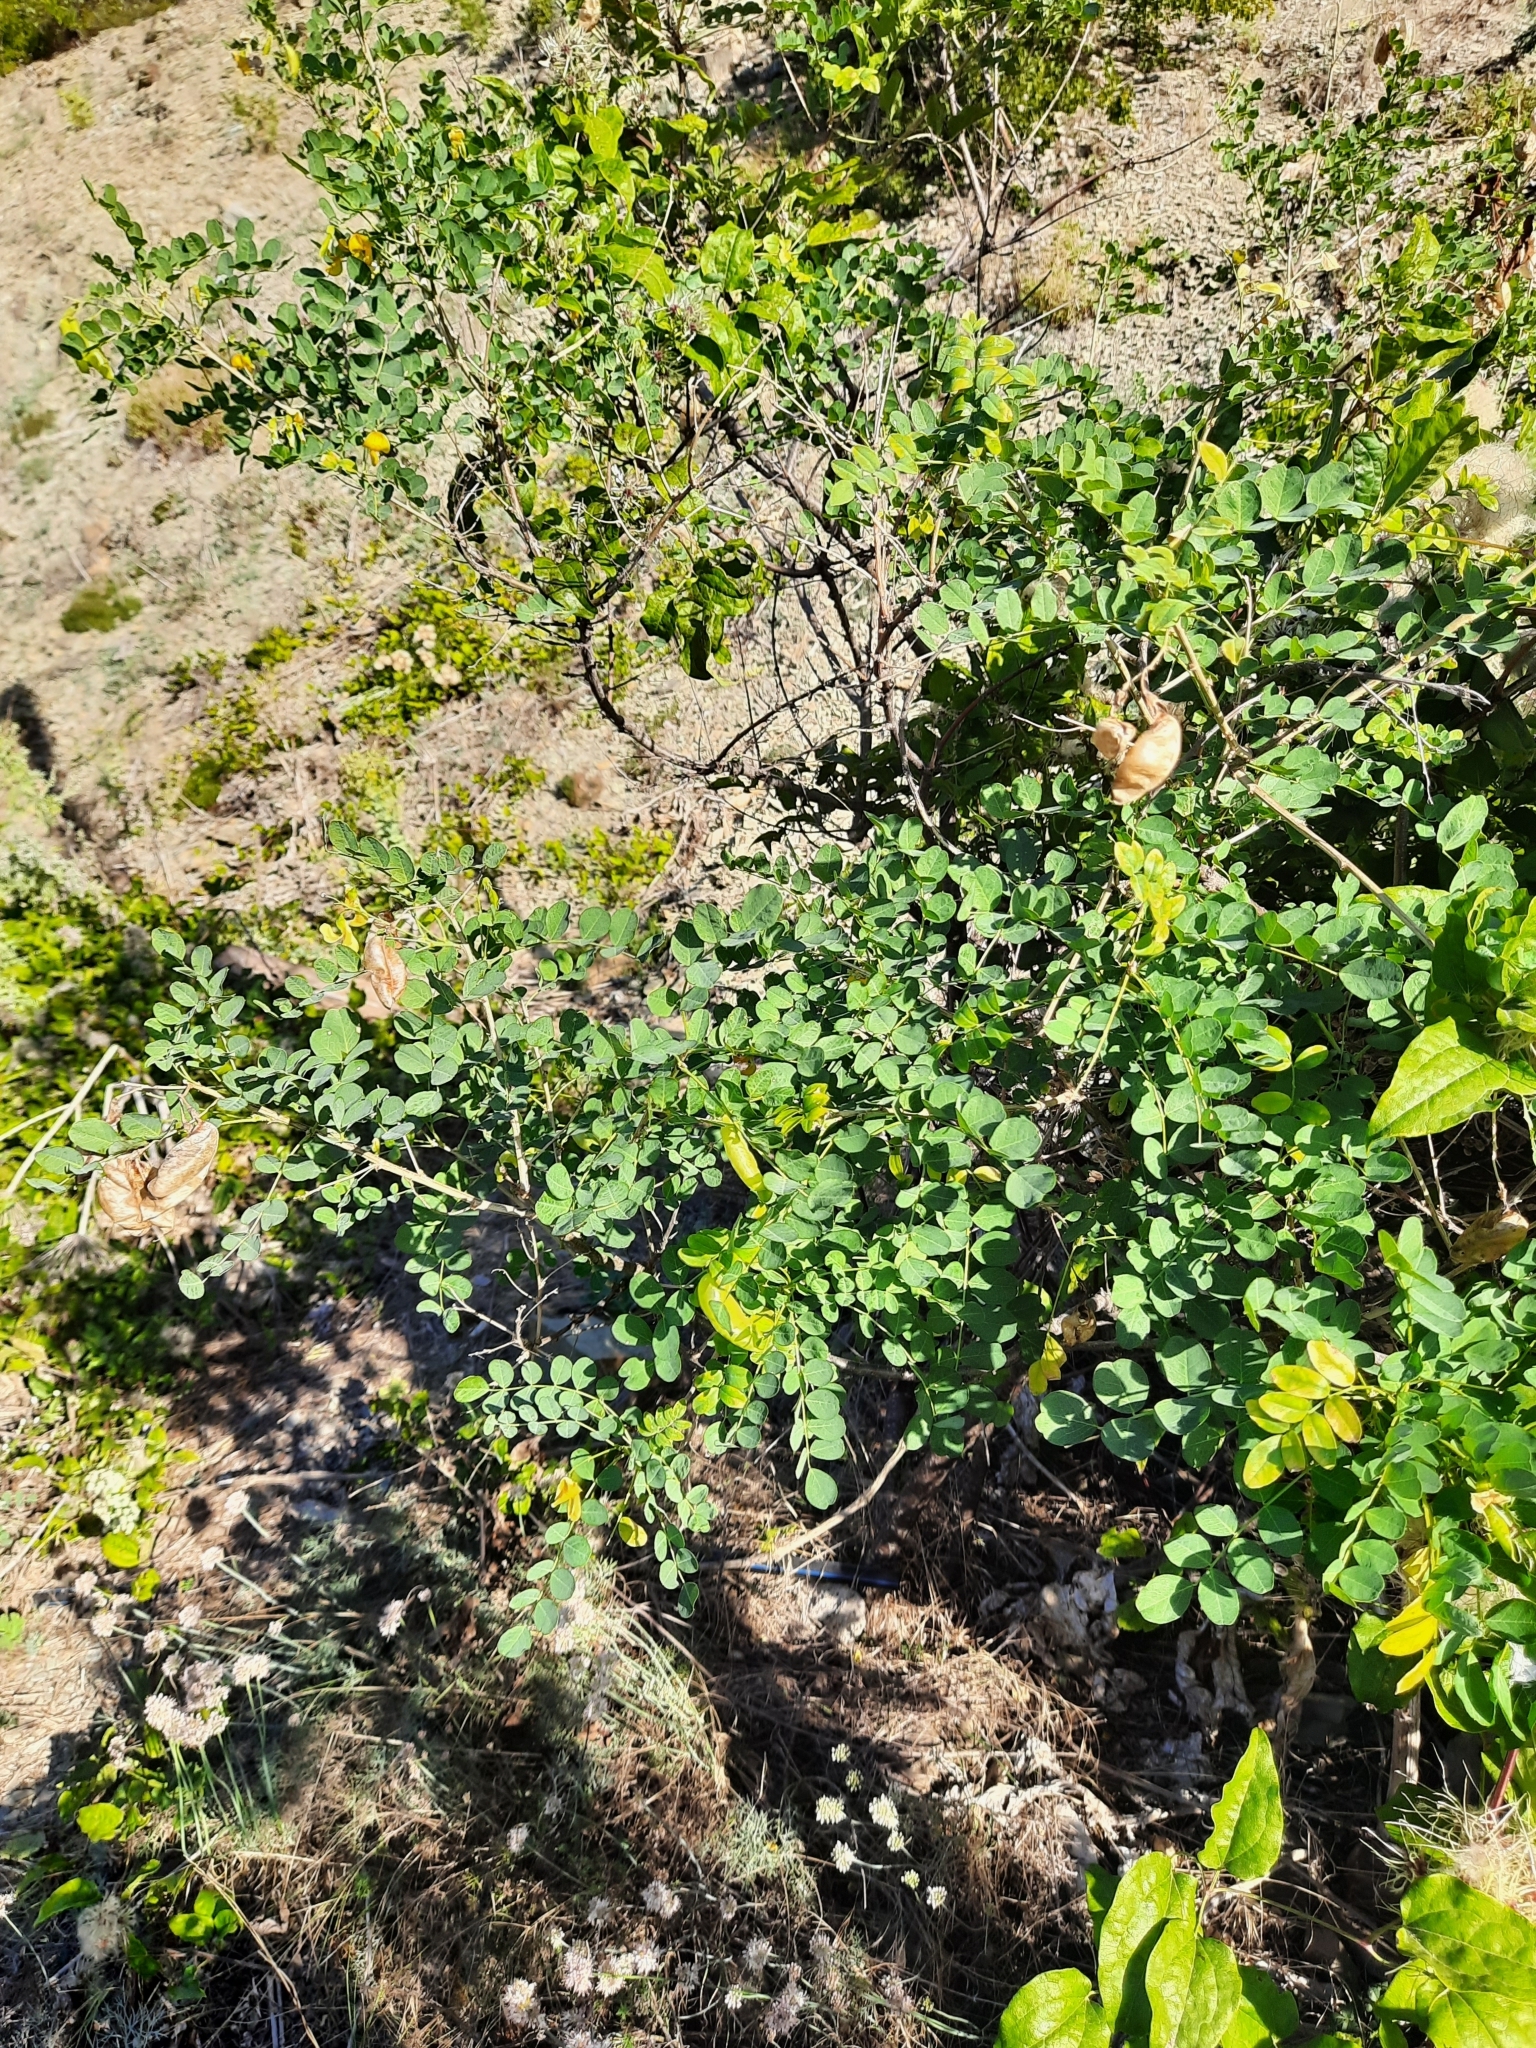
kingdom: Plantae
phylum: Tracheophyta
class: Magnoliopsida
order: Fabales
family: Fabaceae
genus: Colutea
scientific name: Colutea cilicica
